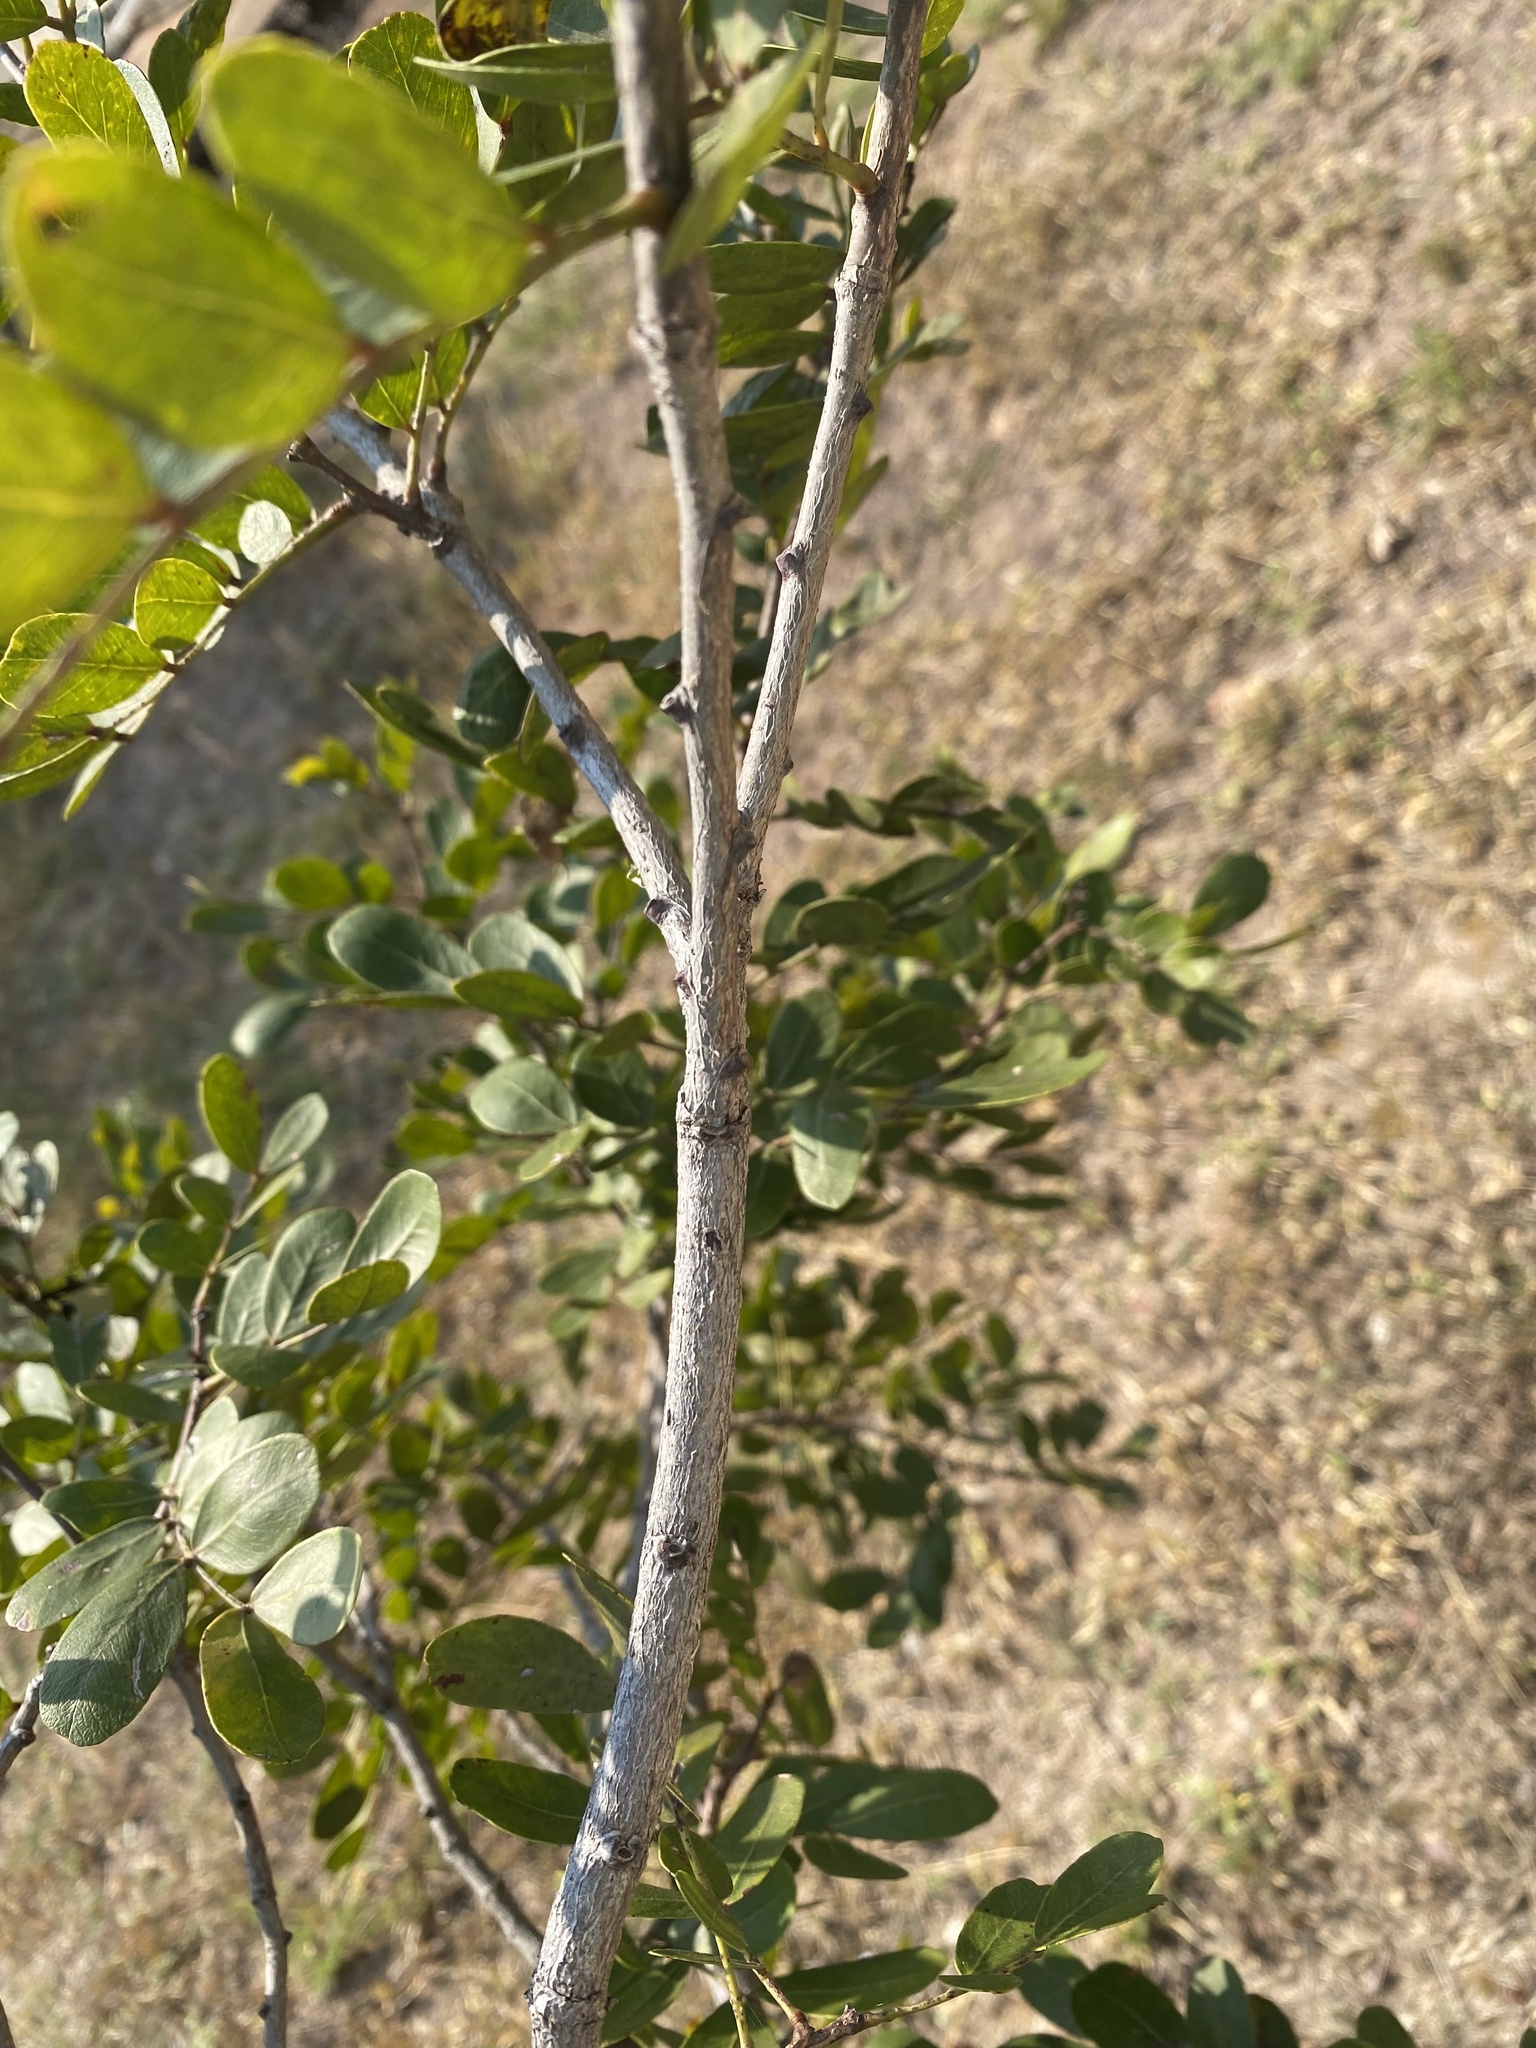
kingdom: Plantae
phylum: Tracheophyta
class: Magnoliopsida
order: Fabales
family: Fabaceae
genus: Schotia
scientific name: Schotia brachypetala
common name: Weeping boer-bean
